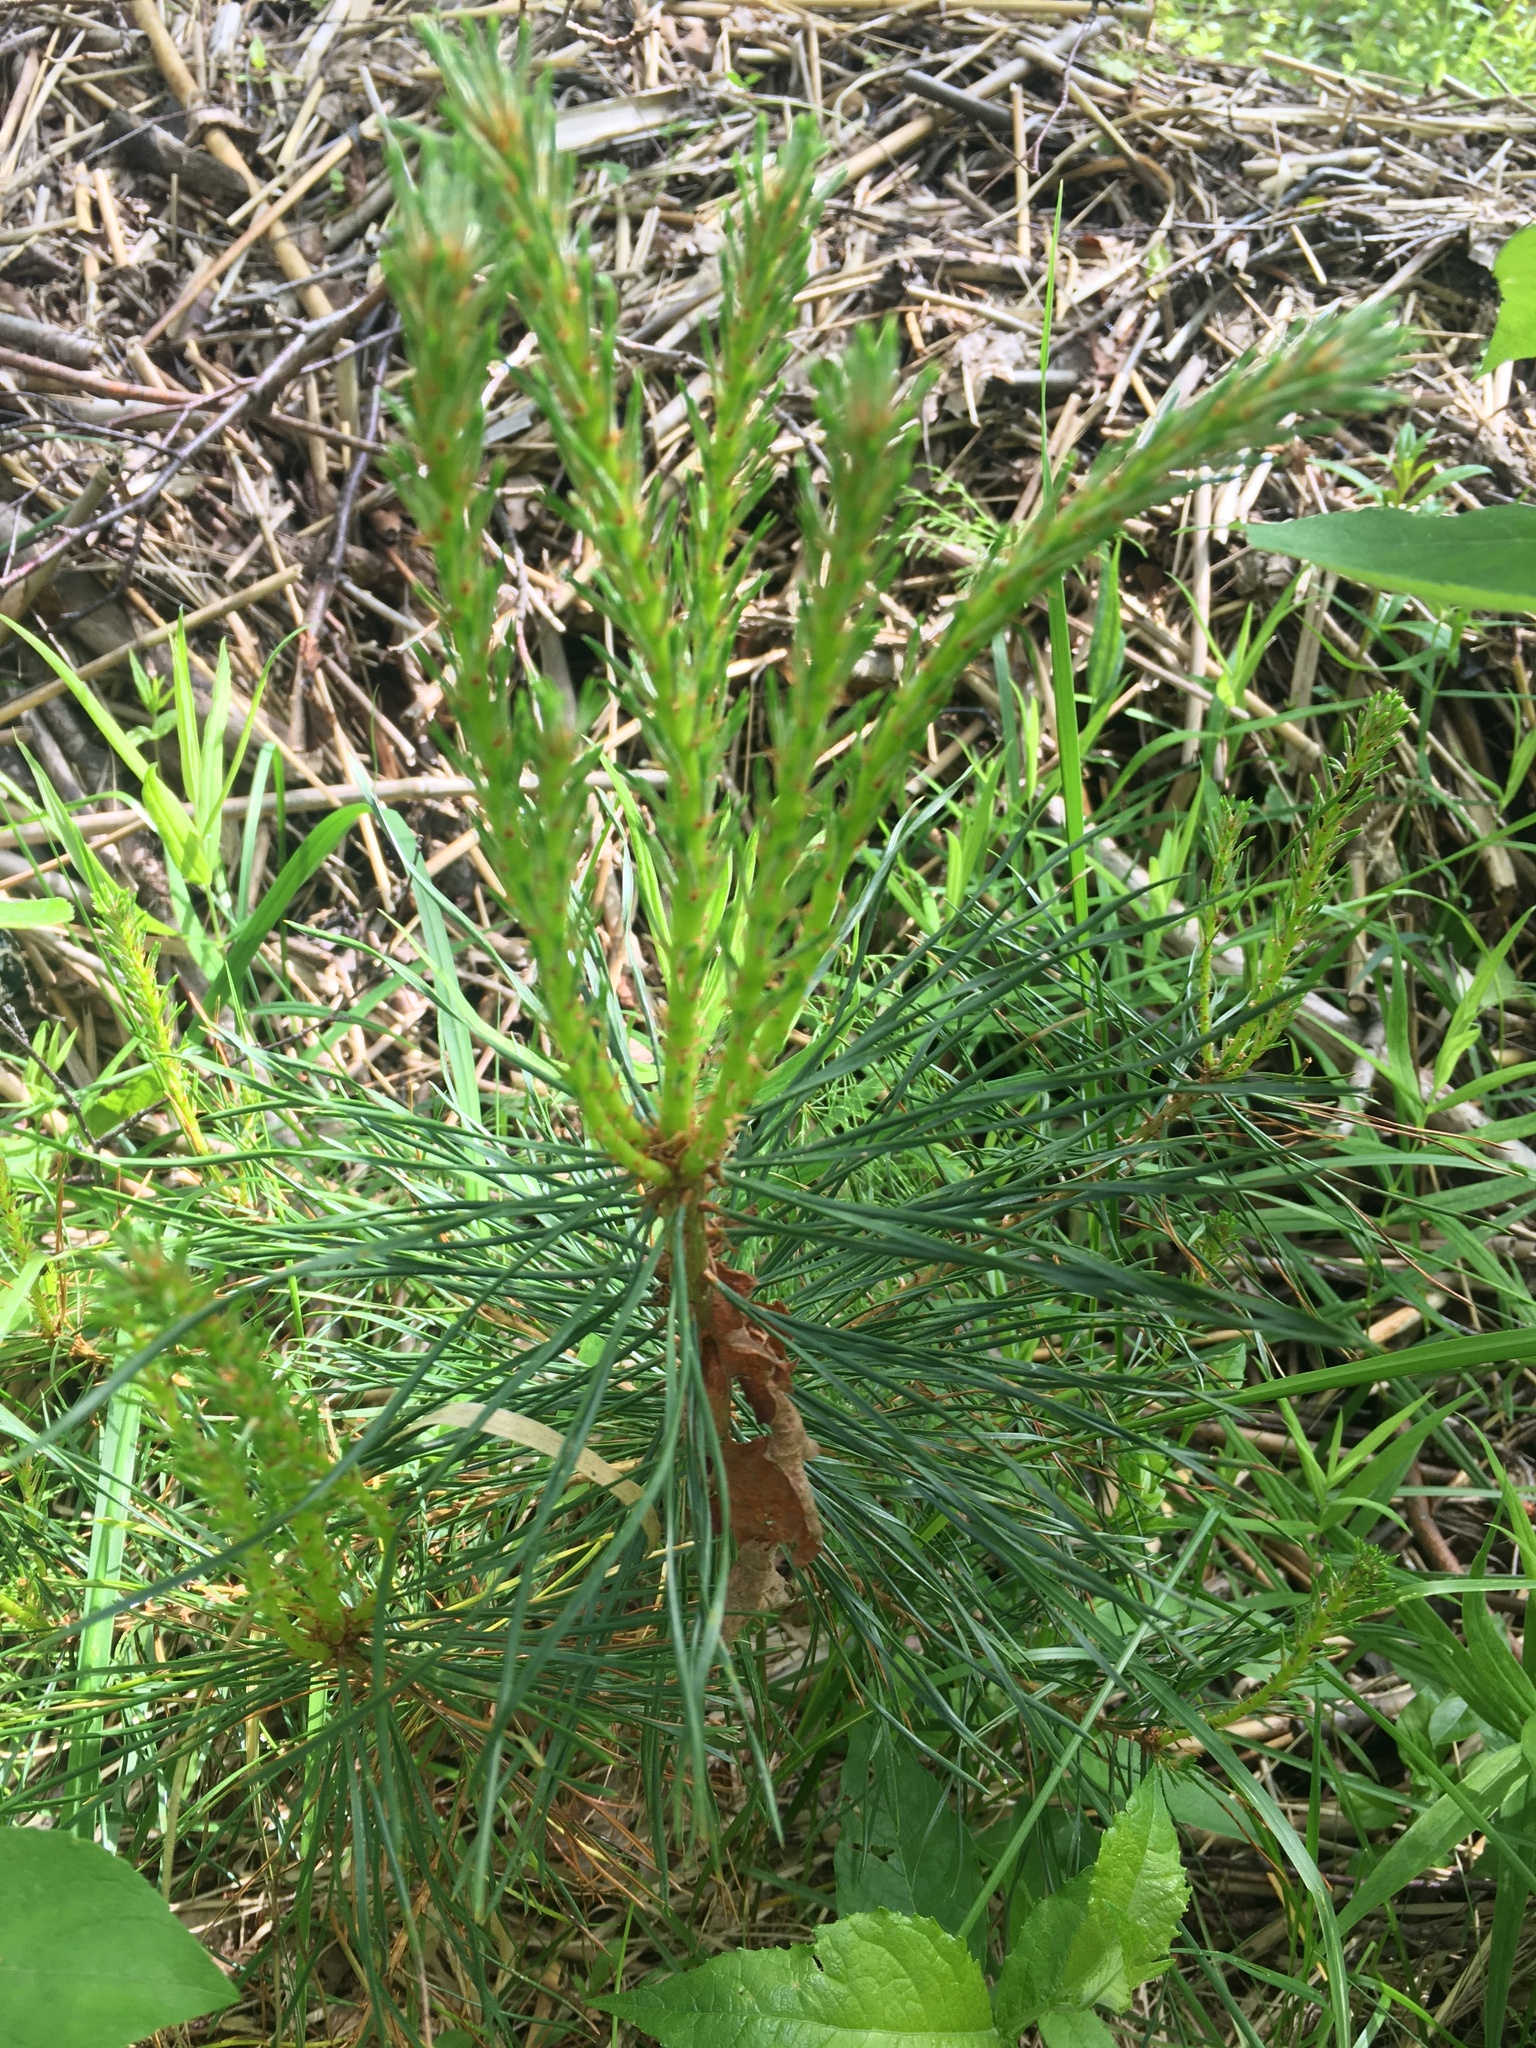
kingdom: Plantae
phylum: Tracheophyta
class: Pinopsida
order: Pinales
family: Pinaceae
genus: Pinus
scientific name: Pinus sylvestris
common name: Scots pine
